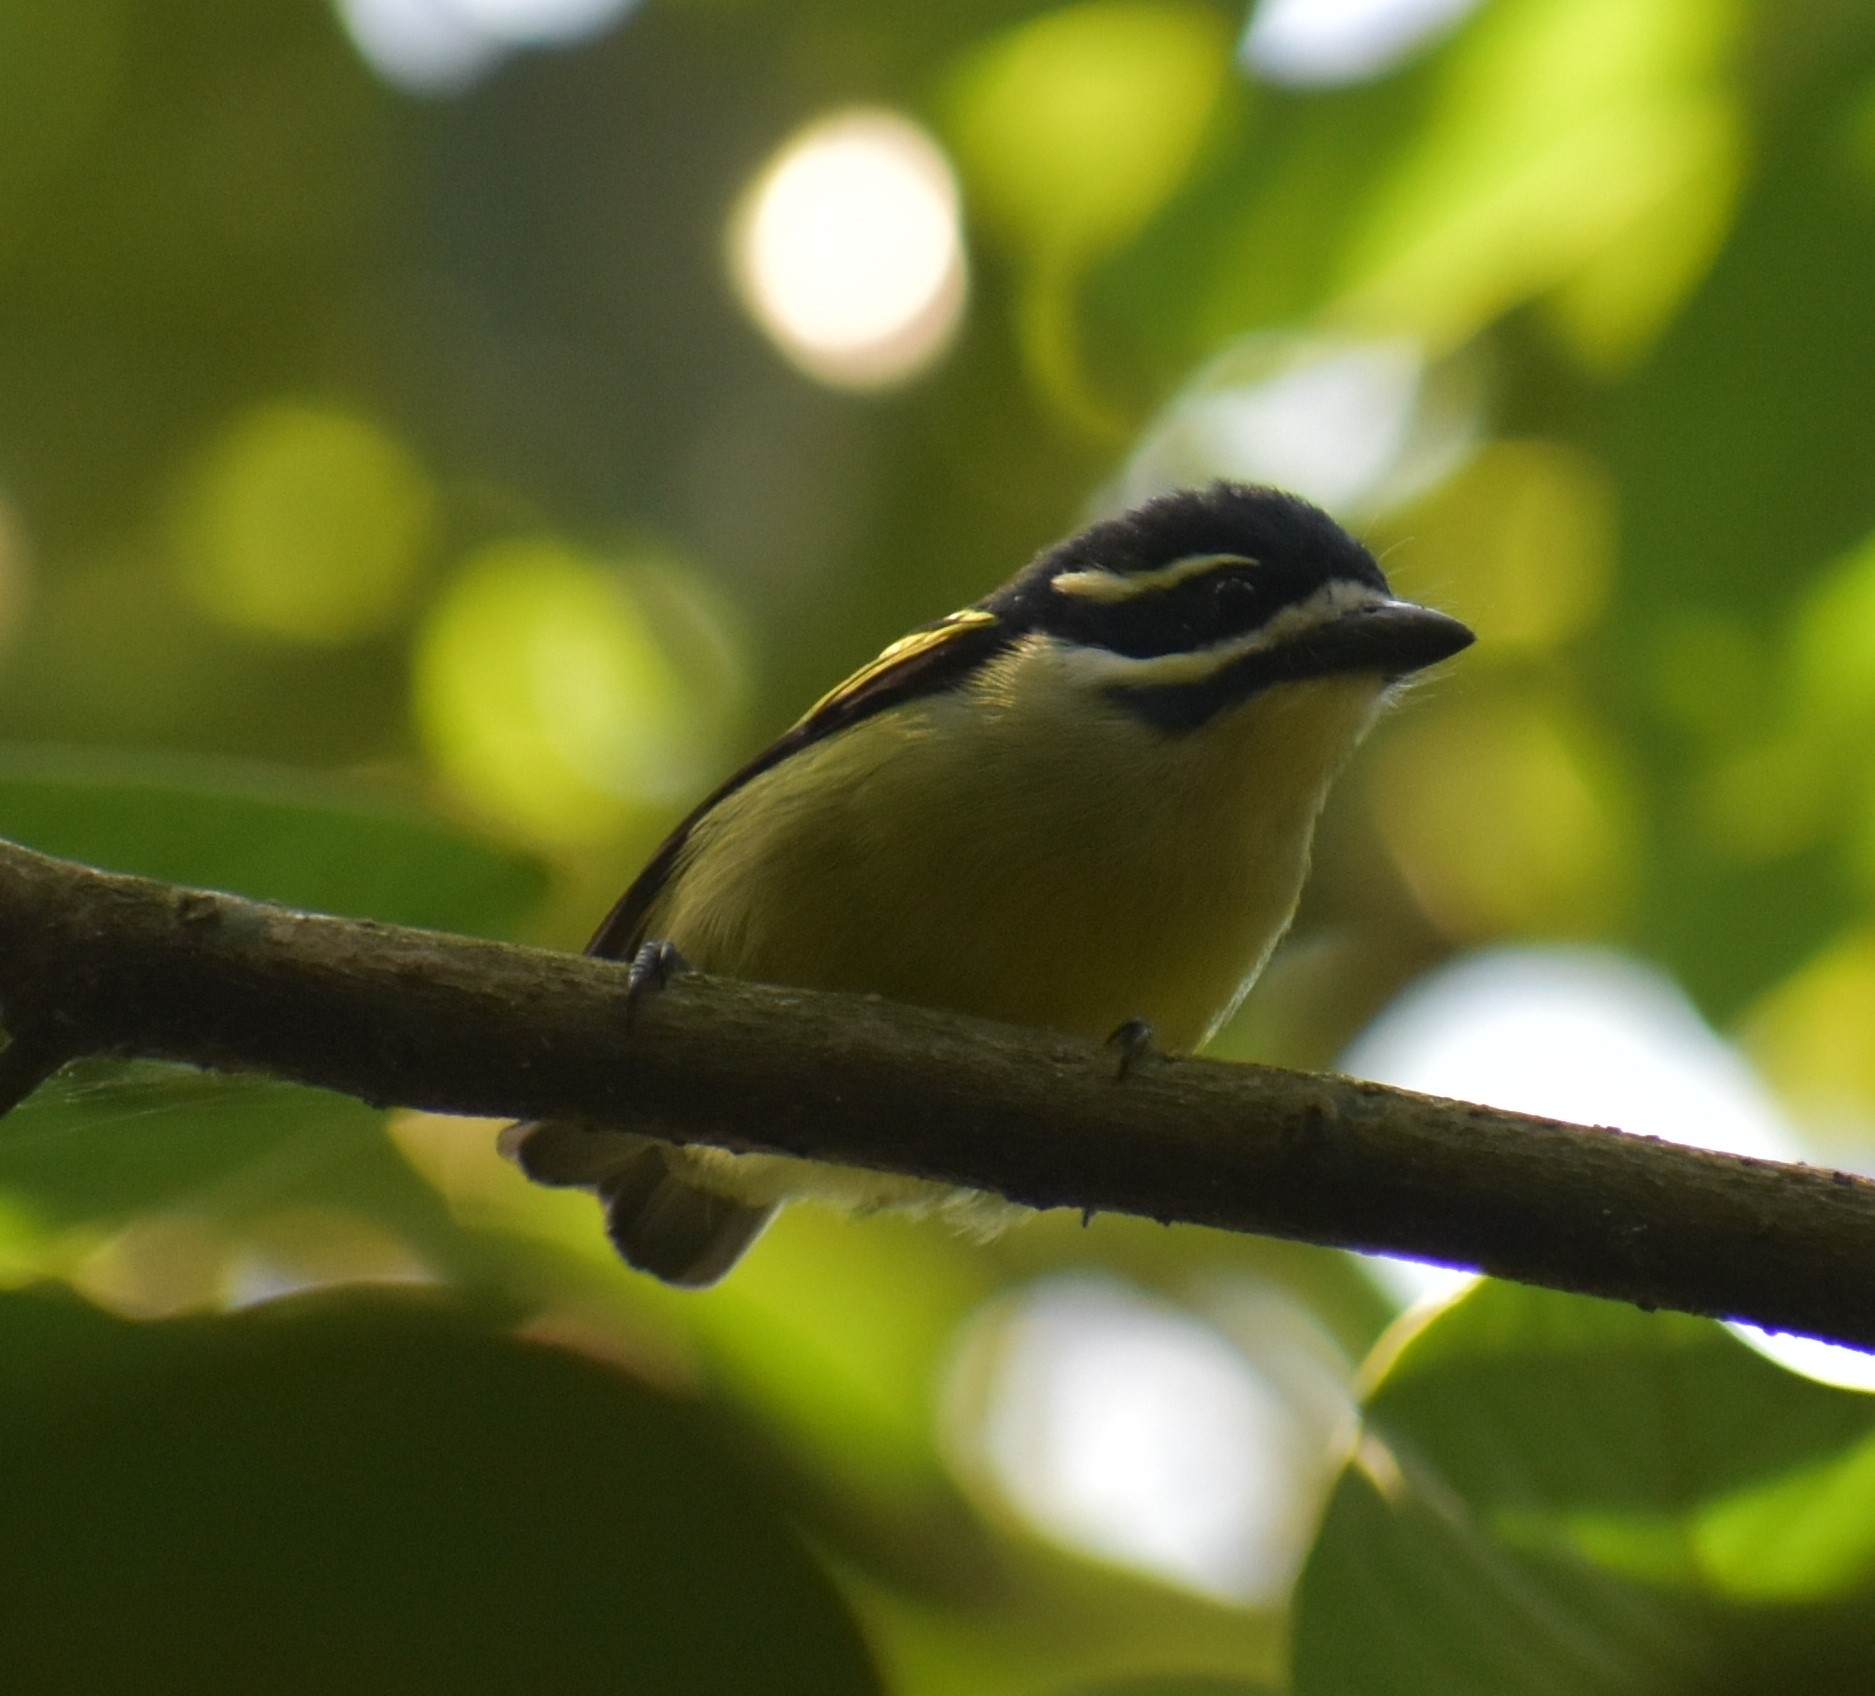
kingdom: Animalia
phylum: Chordata
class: Aves
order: Piciformes
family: Lybiidae
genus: Pogoniulus
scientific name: Pogoniulus bilineatus
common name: Yellow-rumped tinkerbird
